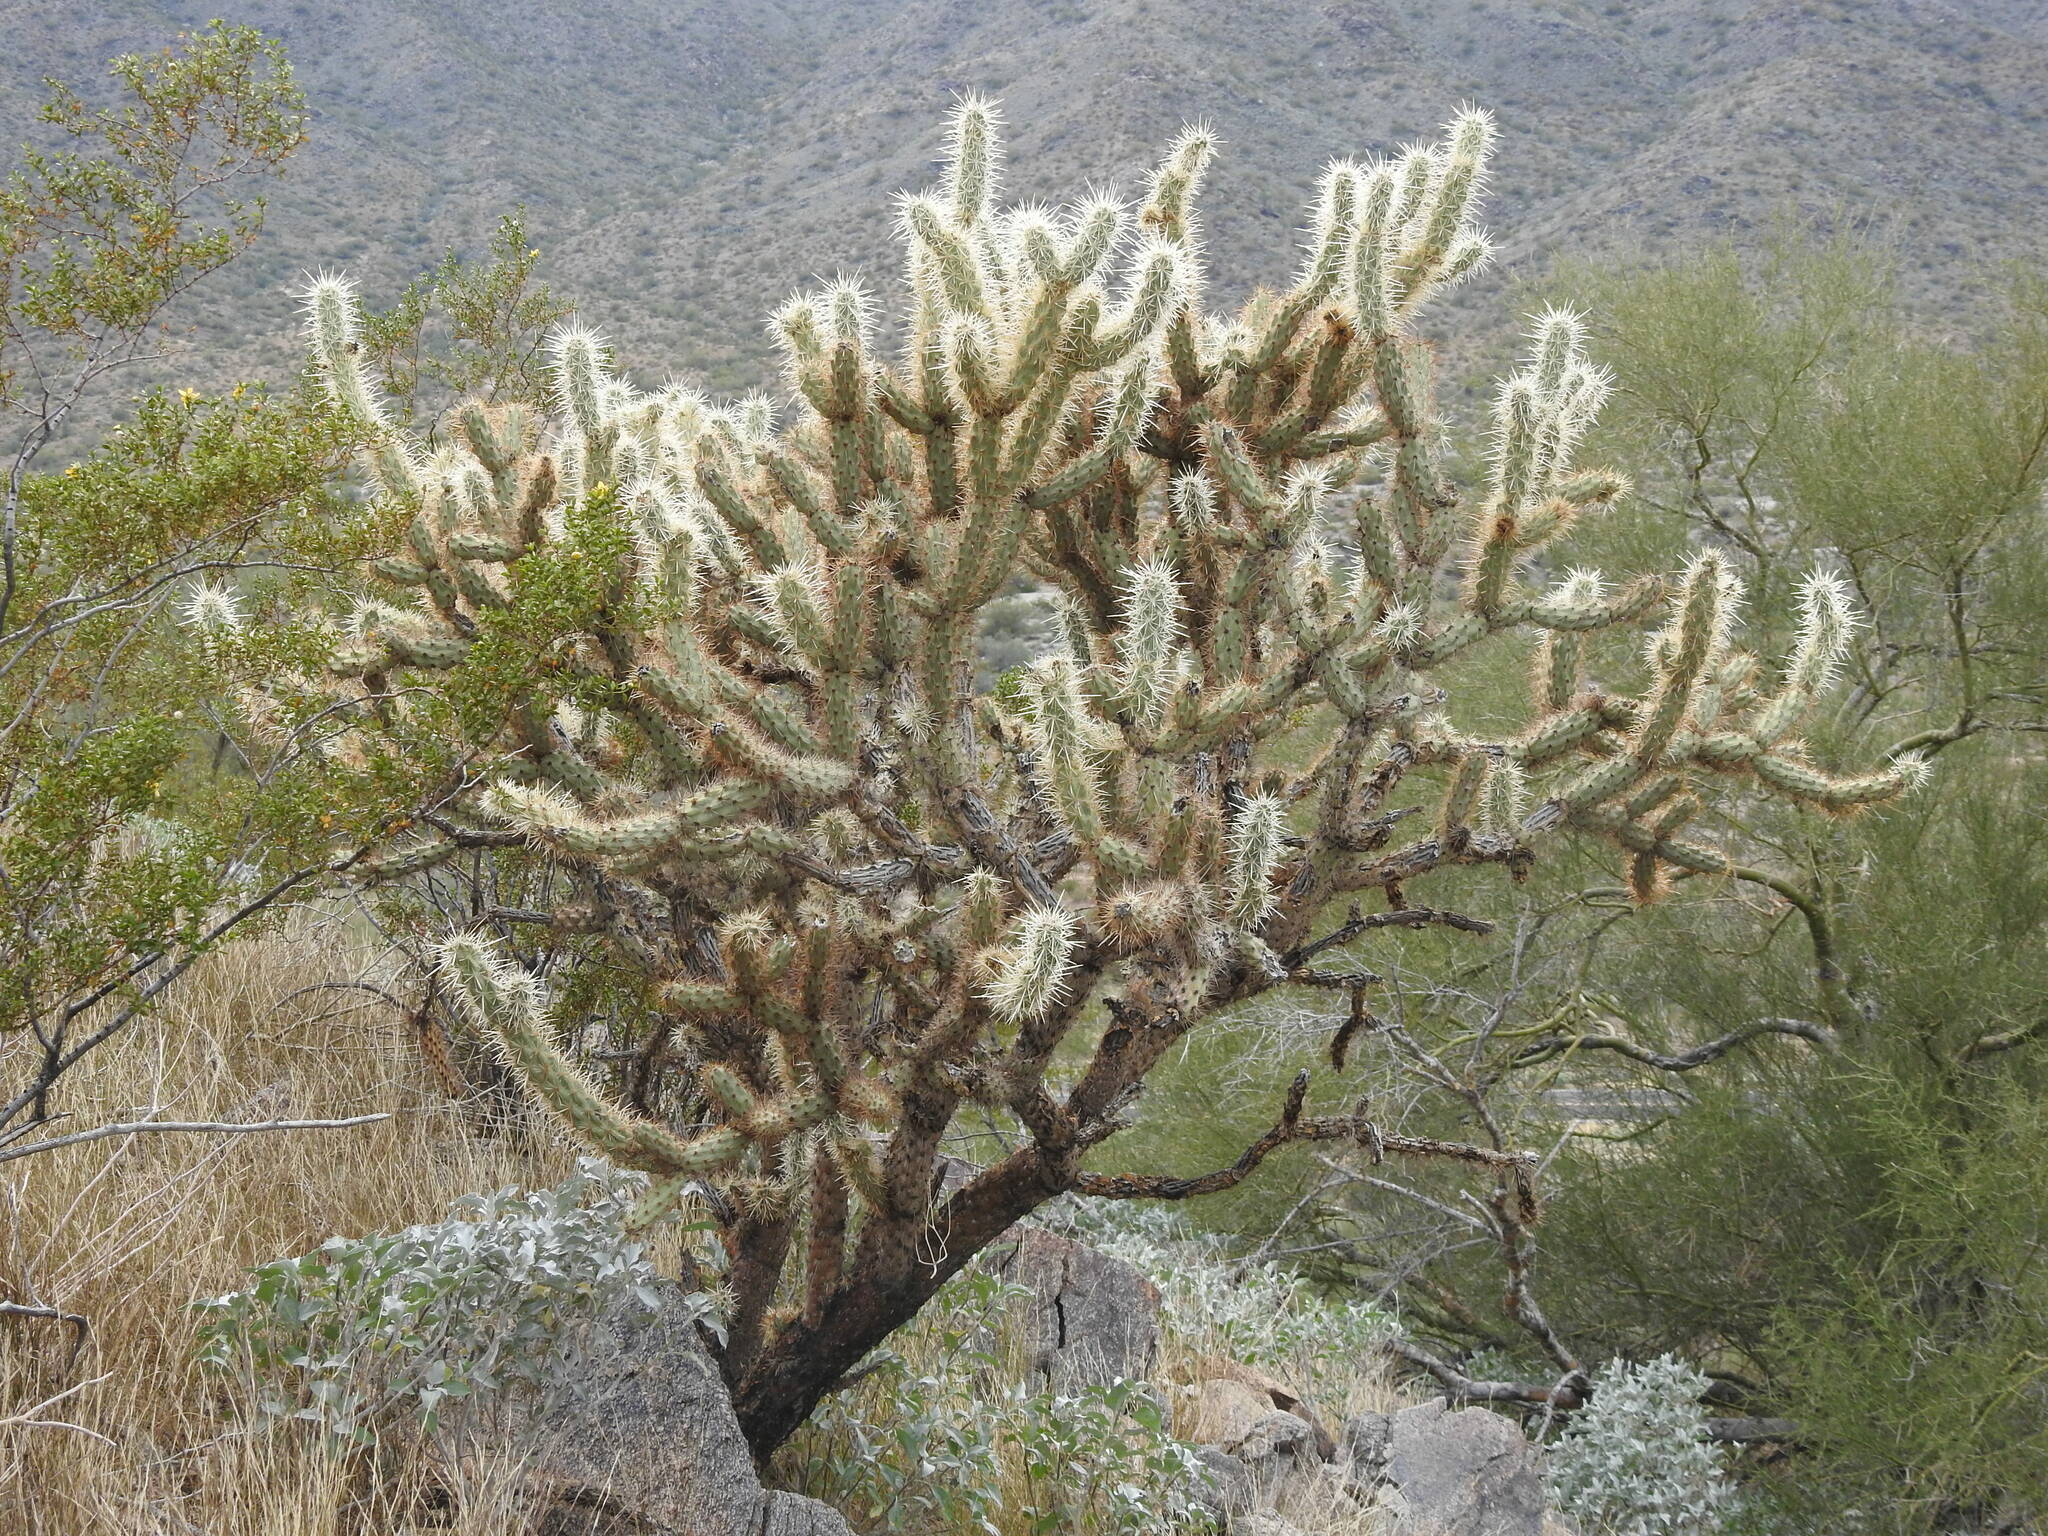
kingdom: Plantae
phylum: Tracheophyta
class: Magnoliopsida
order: Caryophyllales
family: Cactaceae
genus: Cylindropuntia
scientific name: Cylindropuntia acanthocarpa
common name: Buckhorn cholla
